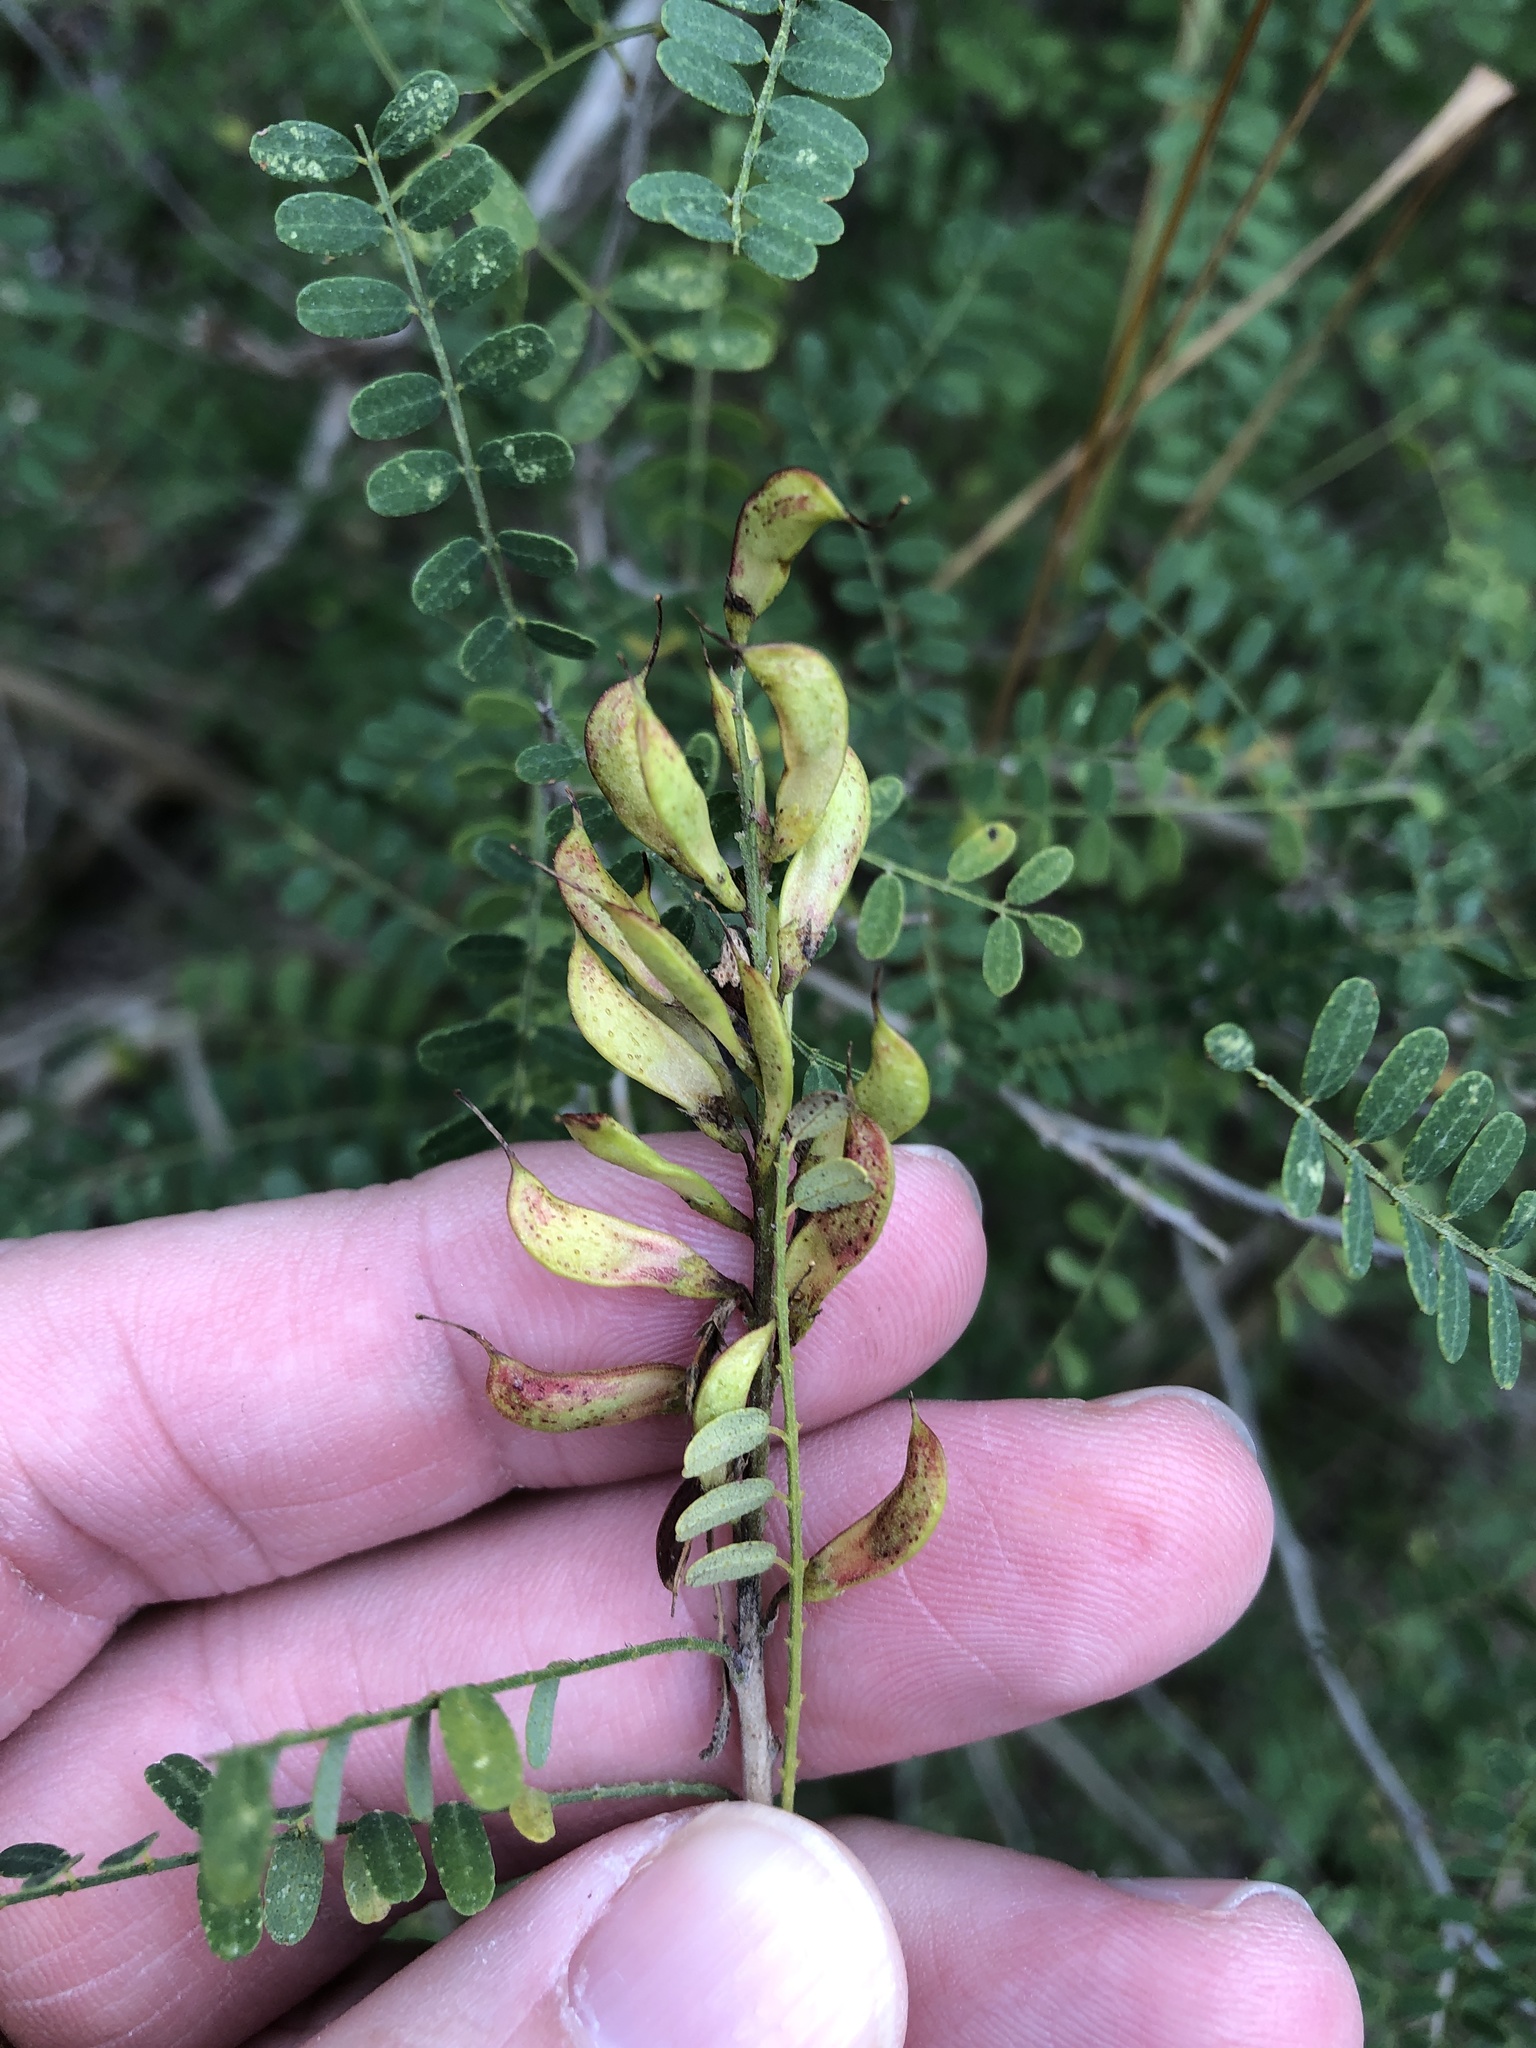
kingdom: Plantae
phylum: Tracheophyta
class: Magnoliopsida
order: Fabales
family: Fabaceae
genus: Eysenhardtia
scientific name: Eysenhardtia texana
